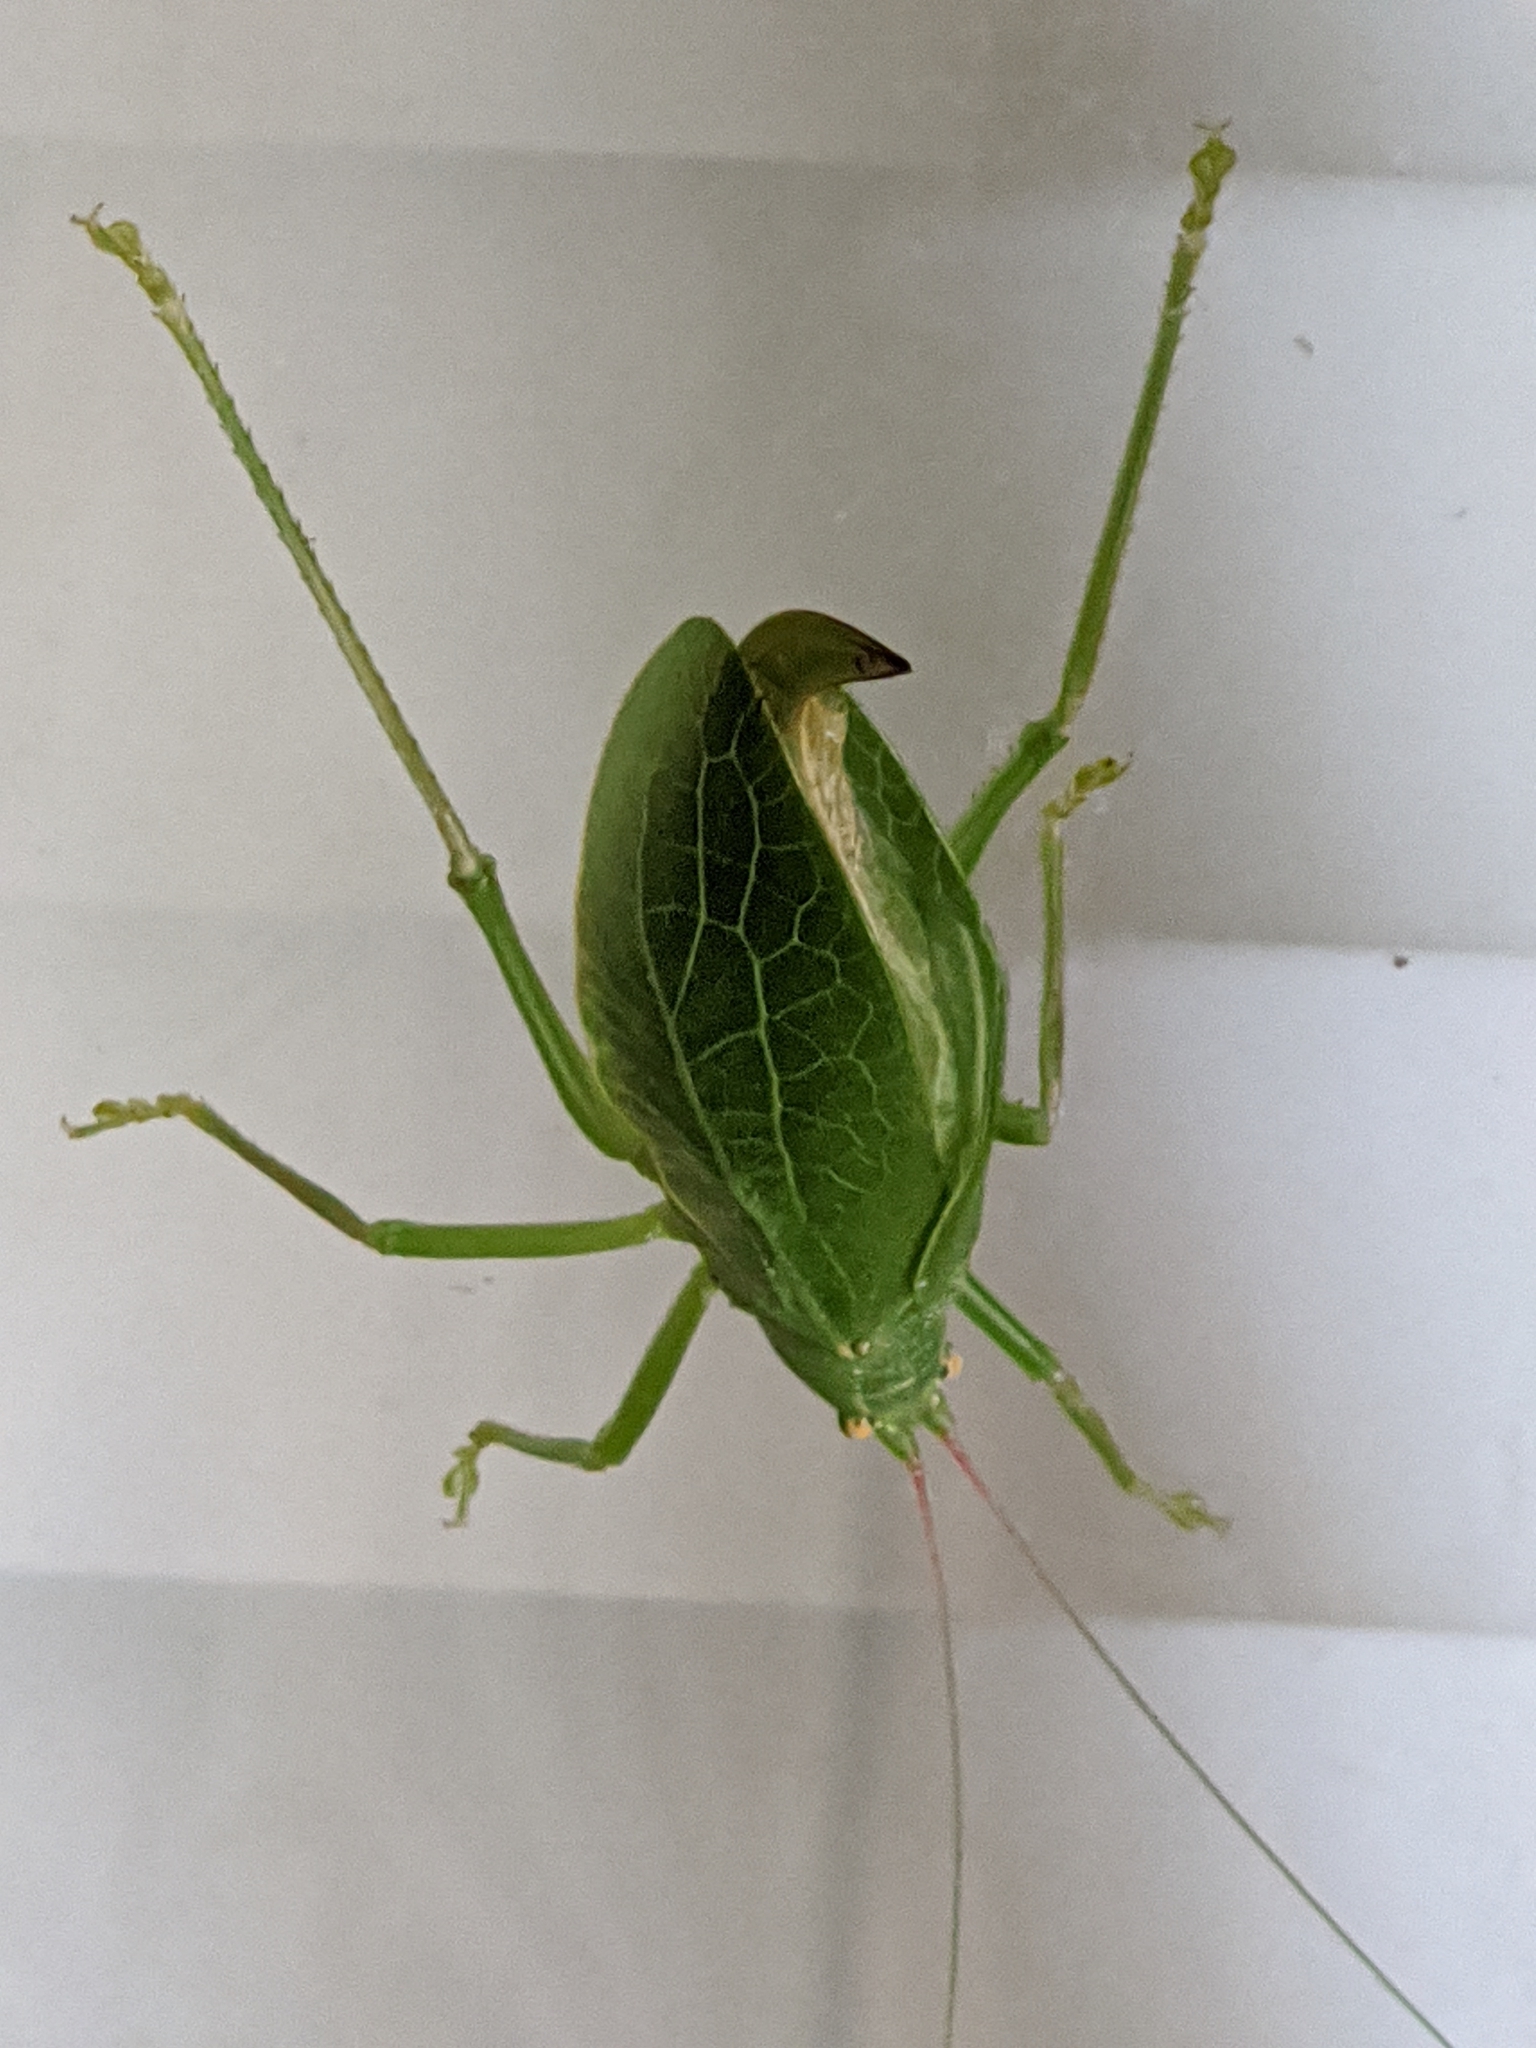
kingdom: Animalia
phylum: Arthropoda
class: Insecta
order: Orthoptera
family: Tettigoniidae
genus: Pterophylla
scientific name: Pterophylla camellifolia
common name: Common true katydid
